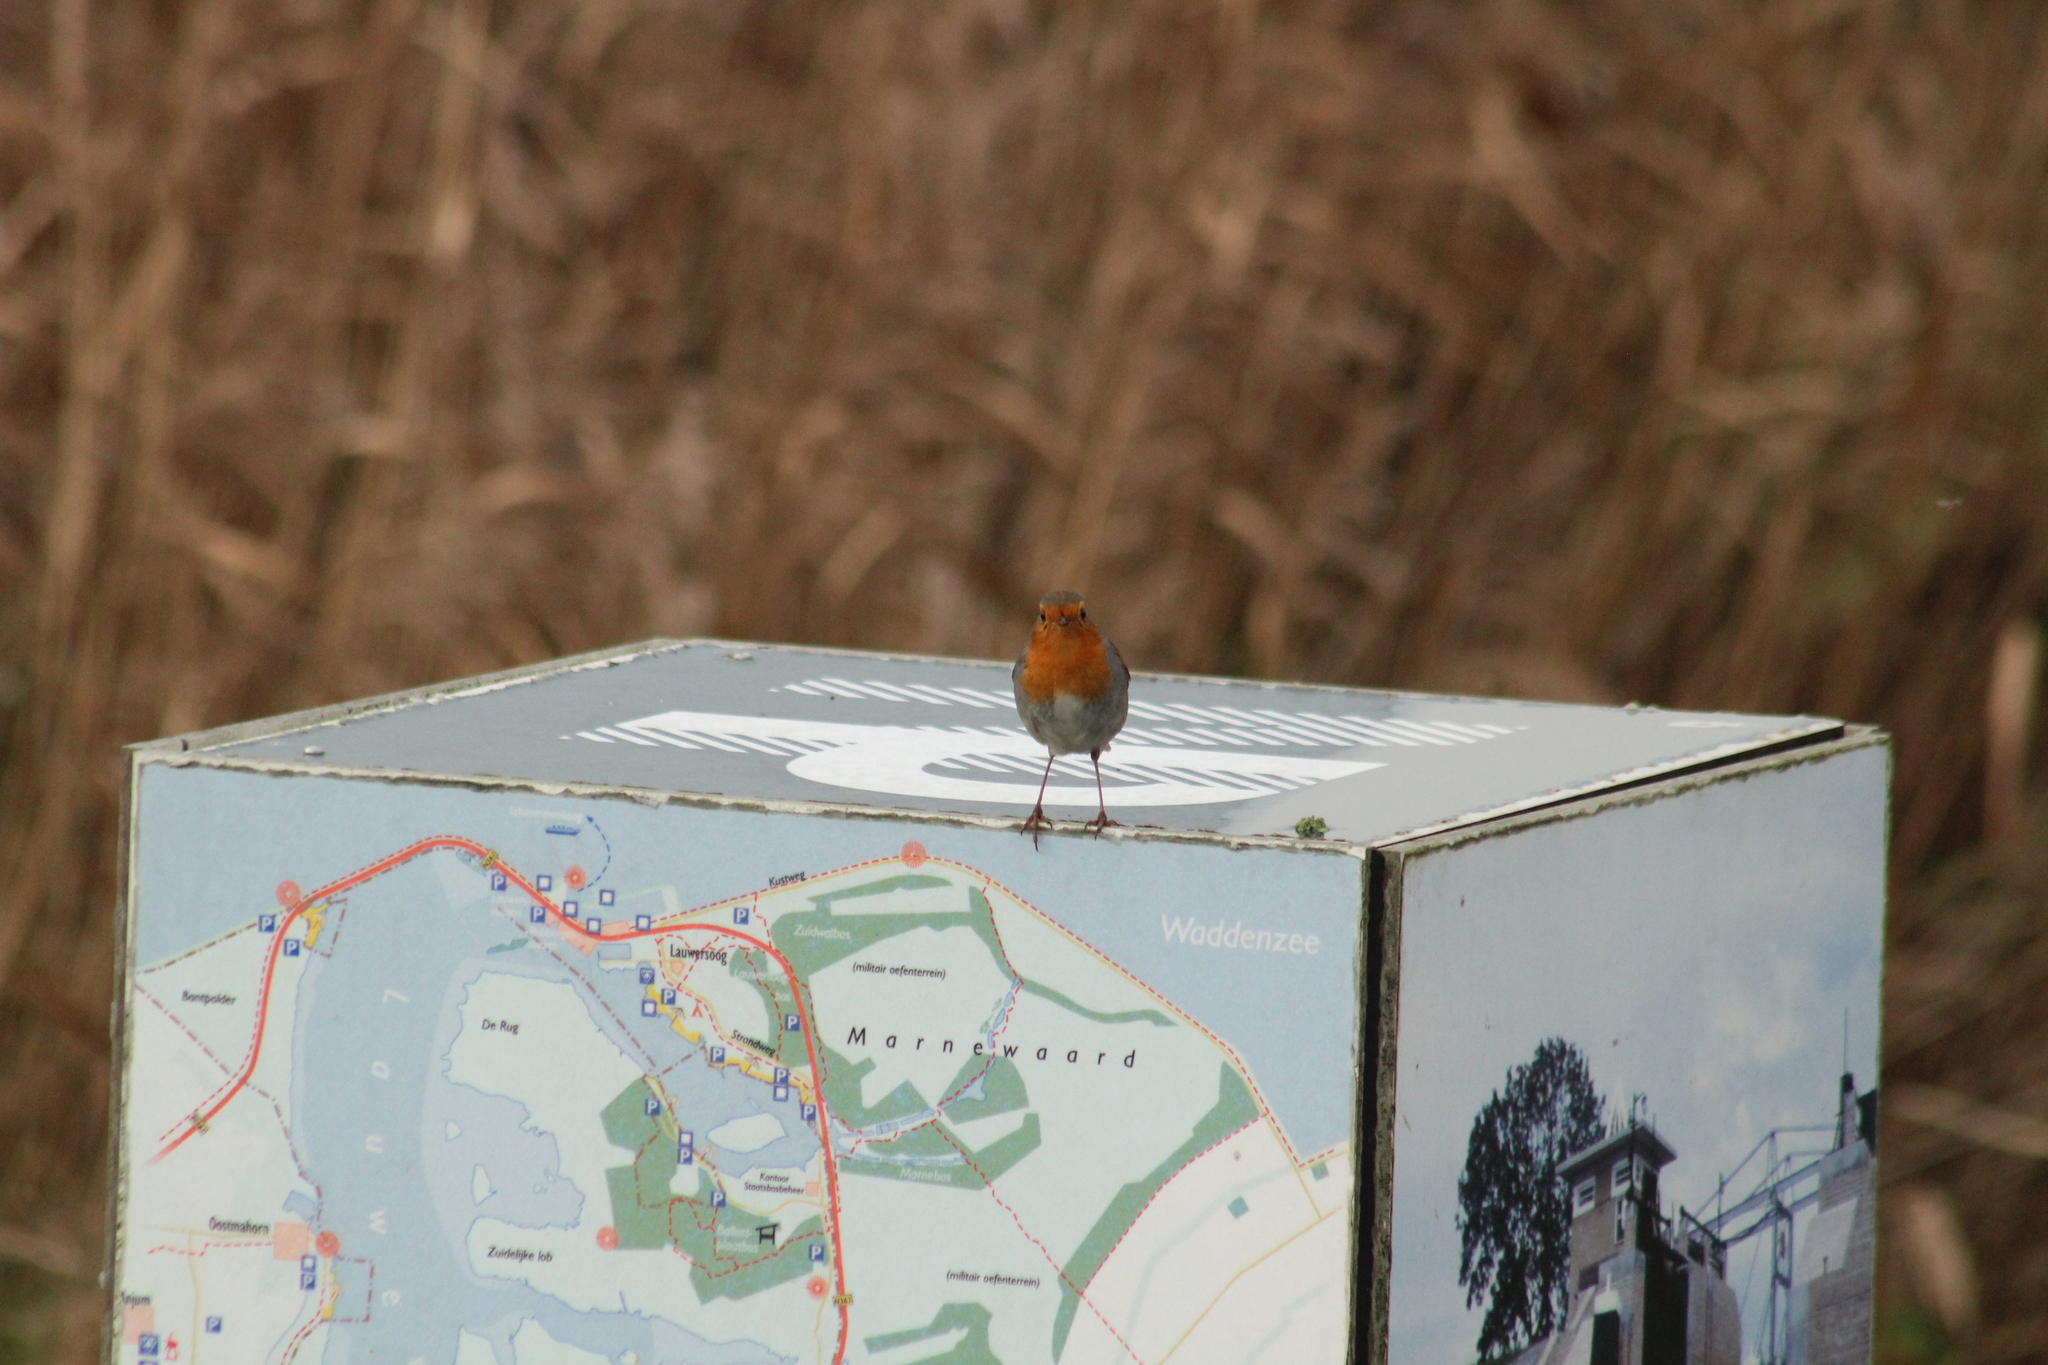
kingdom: Animalia
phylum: Chordata
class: Aves
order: Passeriformes
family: Muscicapidae
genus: Erithacus
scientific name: Erithacus rubecula
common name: European robin
